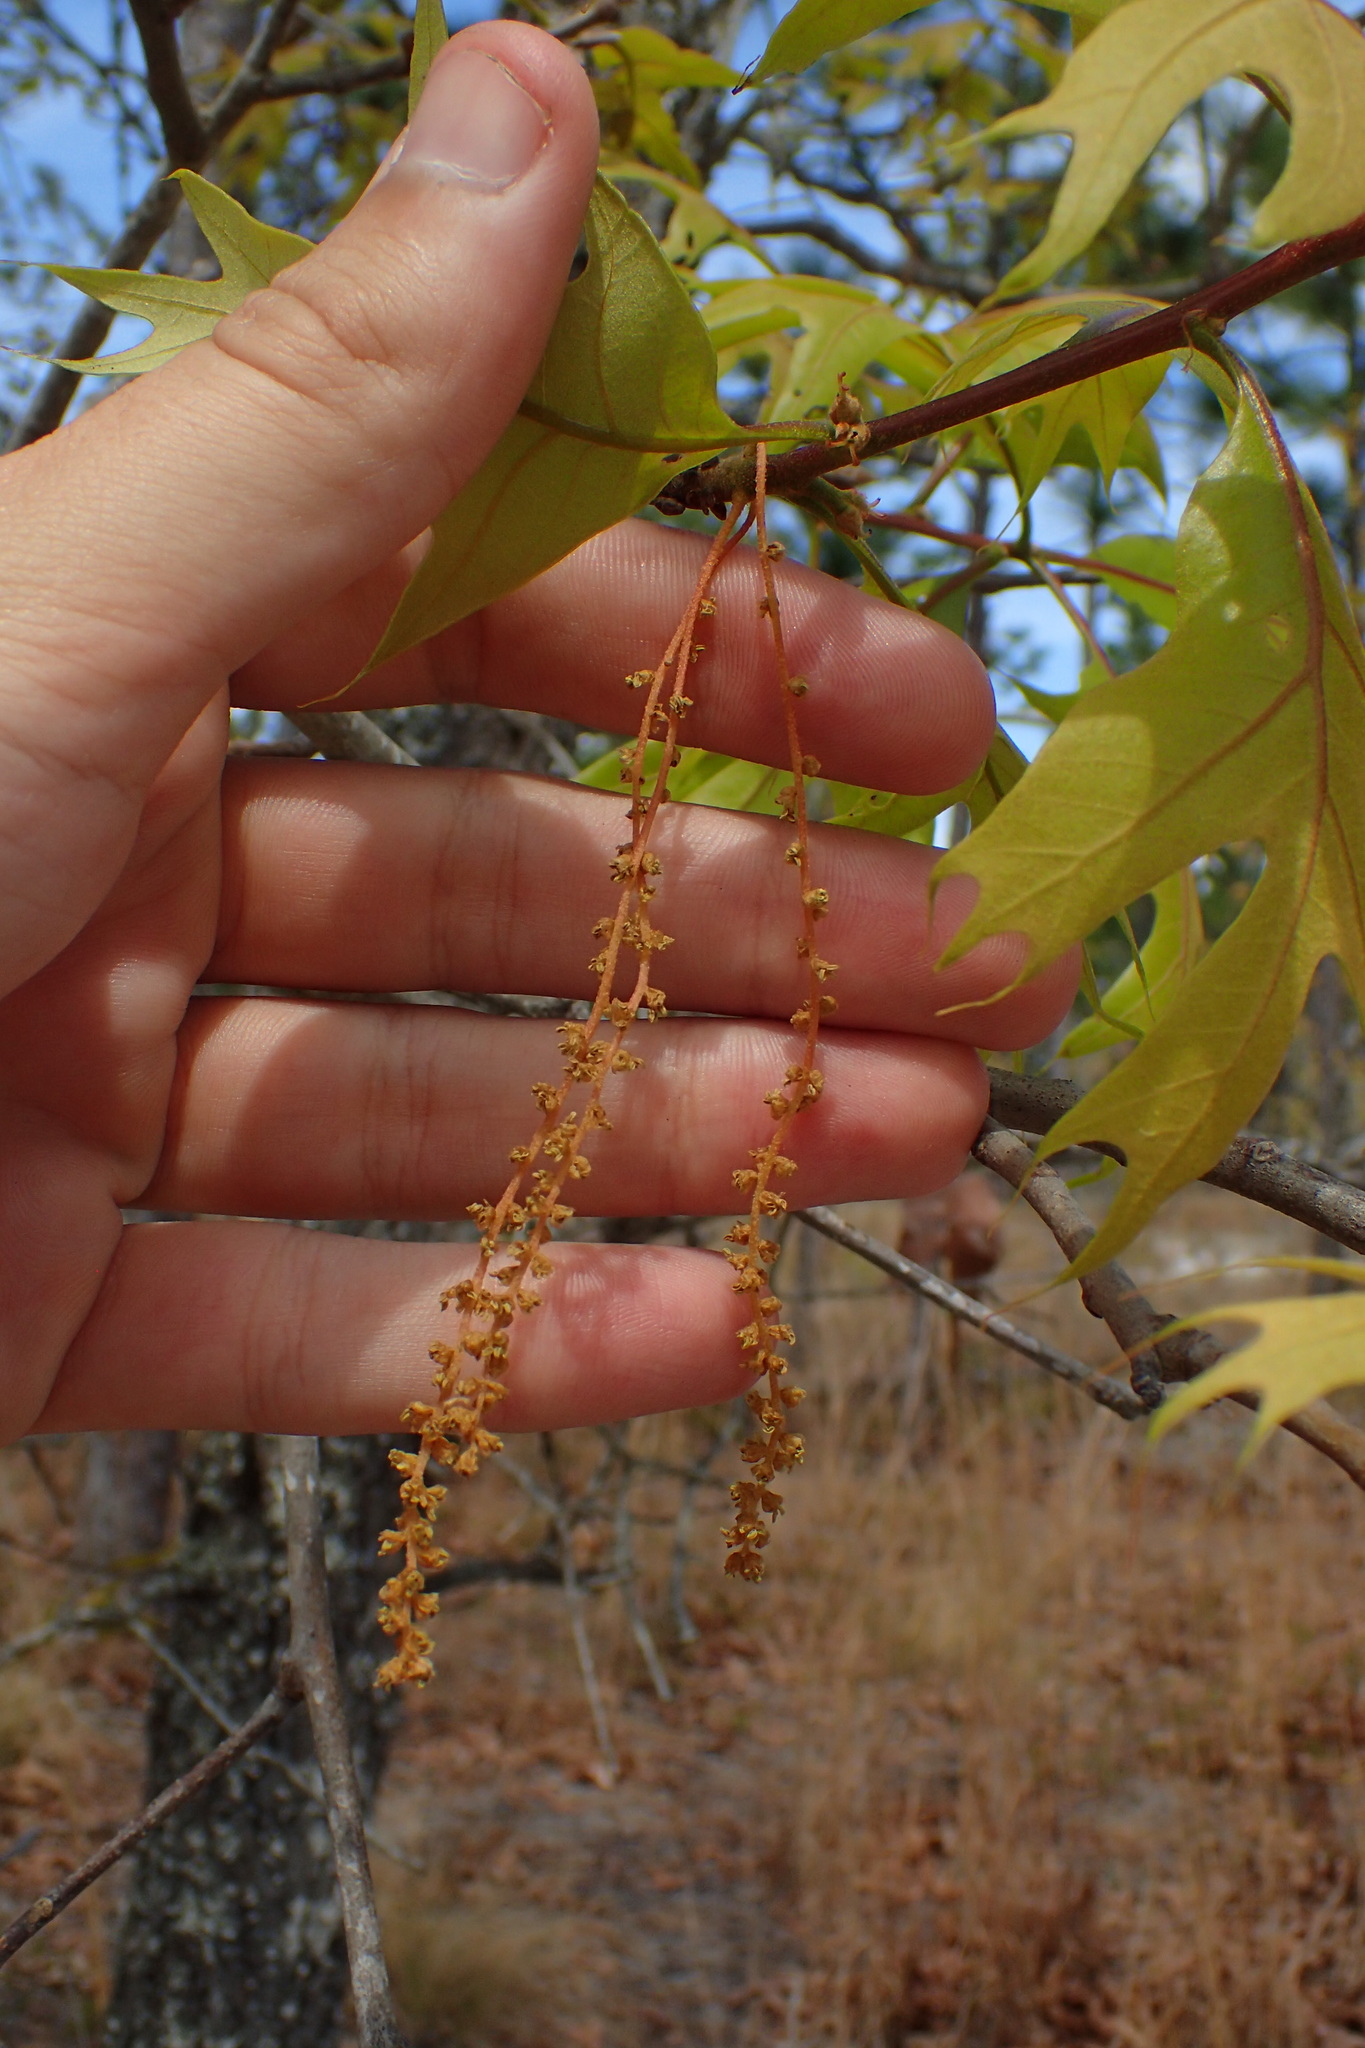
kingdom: Plantae
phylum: Tracheophyta
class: Magnoliopsida
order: Fagales
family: Fagaceae
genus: Quercus
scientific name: Quercus laevis
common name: Turkey oak
